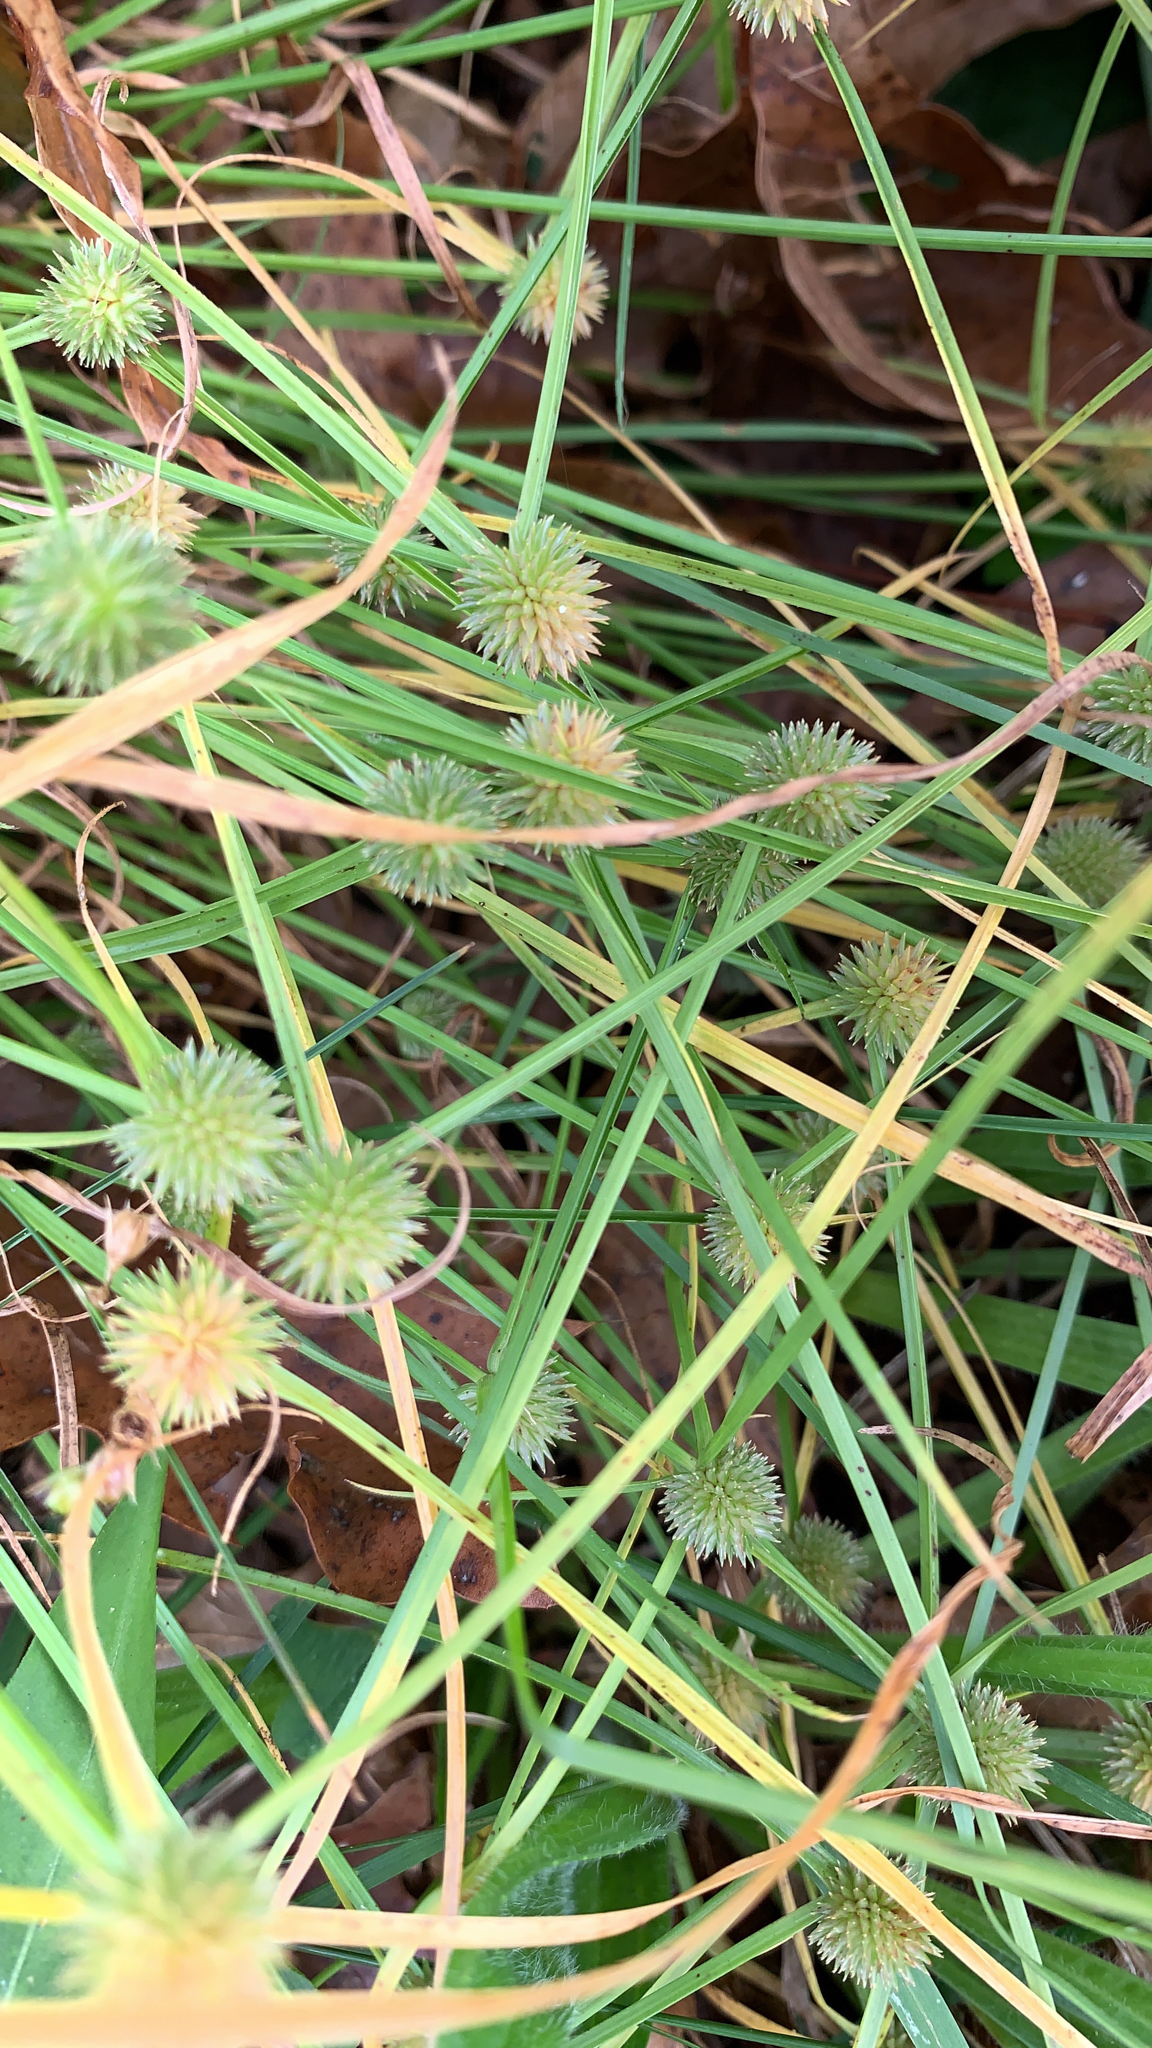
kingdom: Plantae
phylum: Tracheophyta
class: Liliopsida
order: Poales
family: Cyperaceae
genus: Cyperus
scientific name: Cyperus brevifolioides
